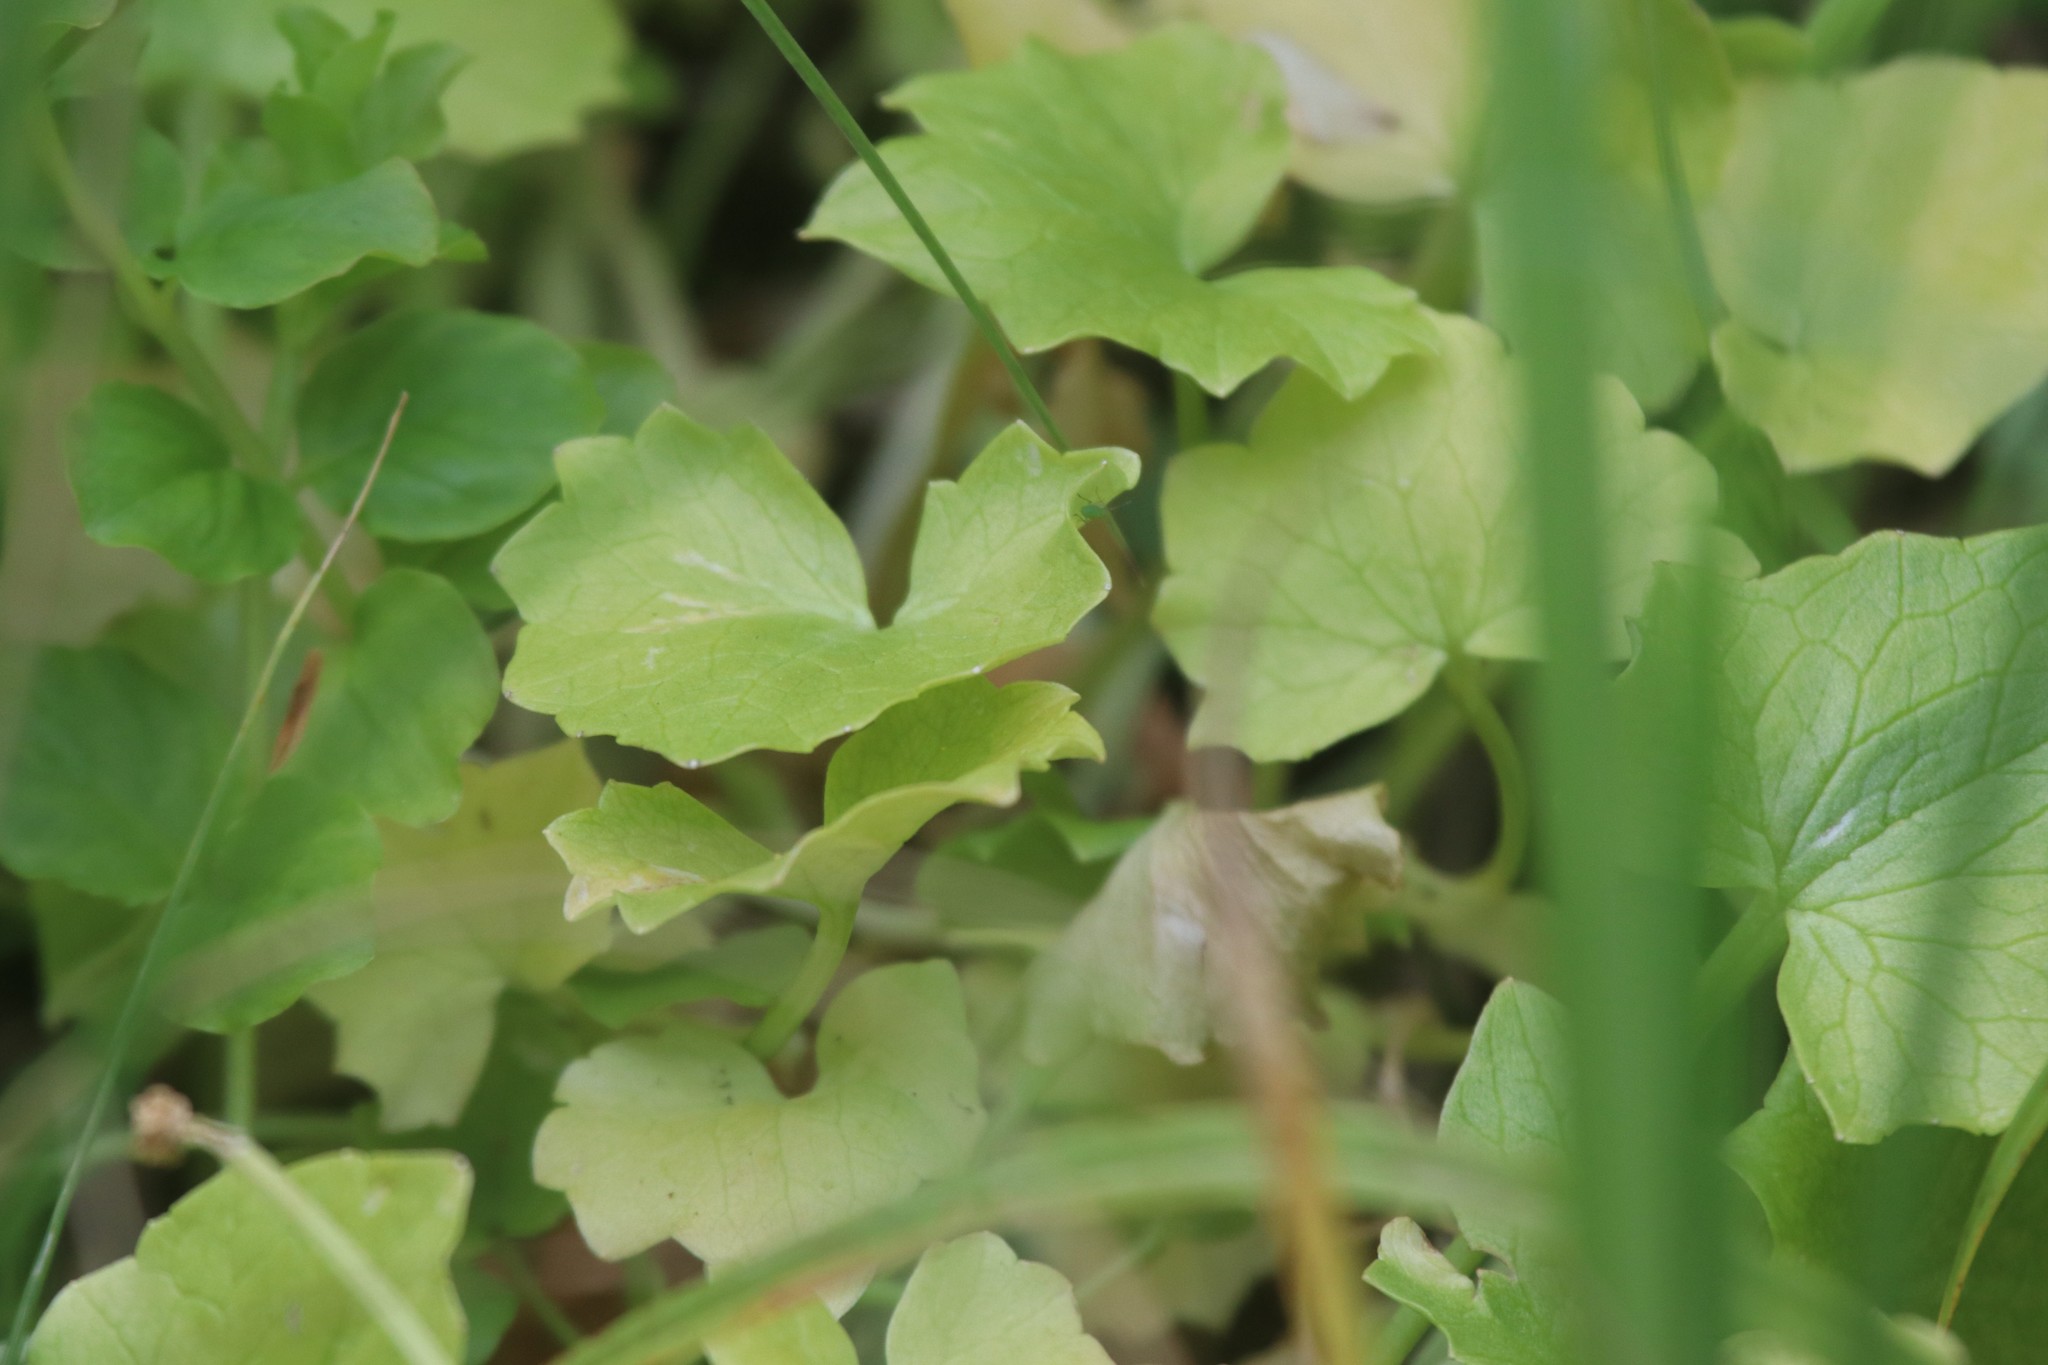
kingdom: Plantae
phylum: Tracheophyta
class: Magnoliopsida
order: Asterales
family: Campanulaceae
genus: Campanula
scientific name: Campanula rotundifolia
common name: Harebell
